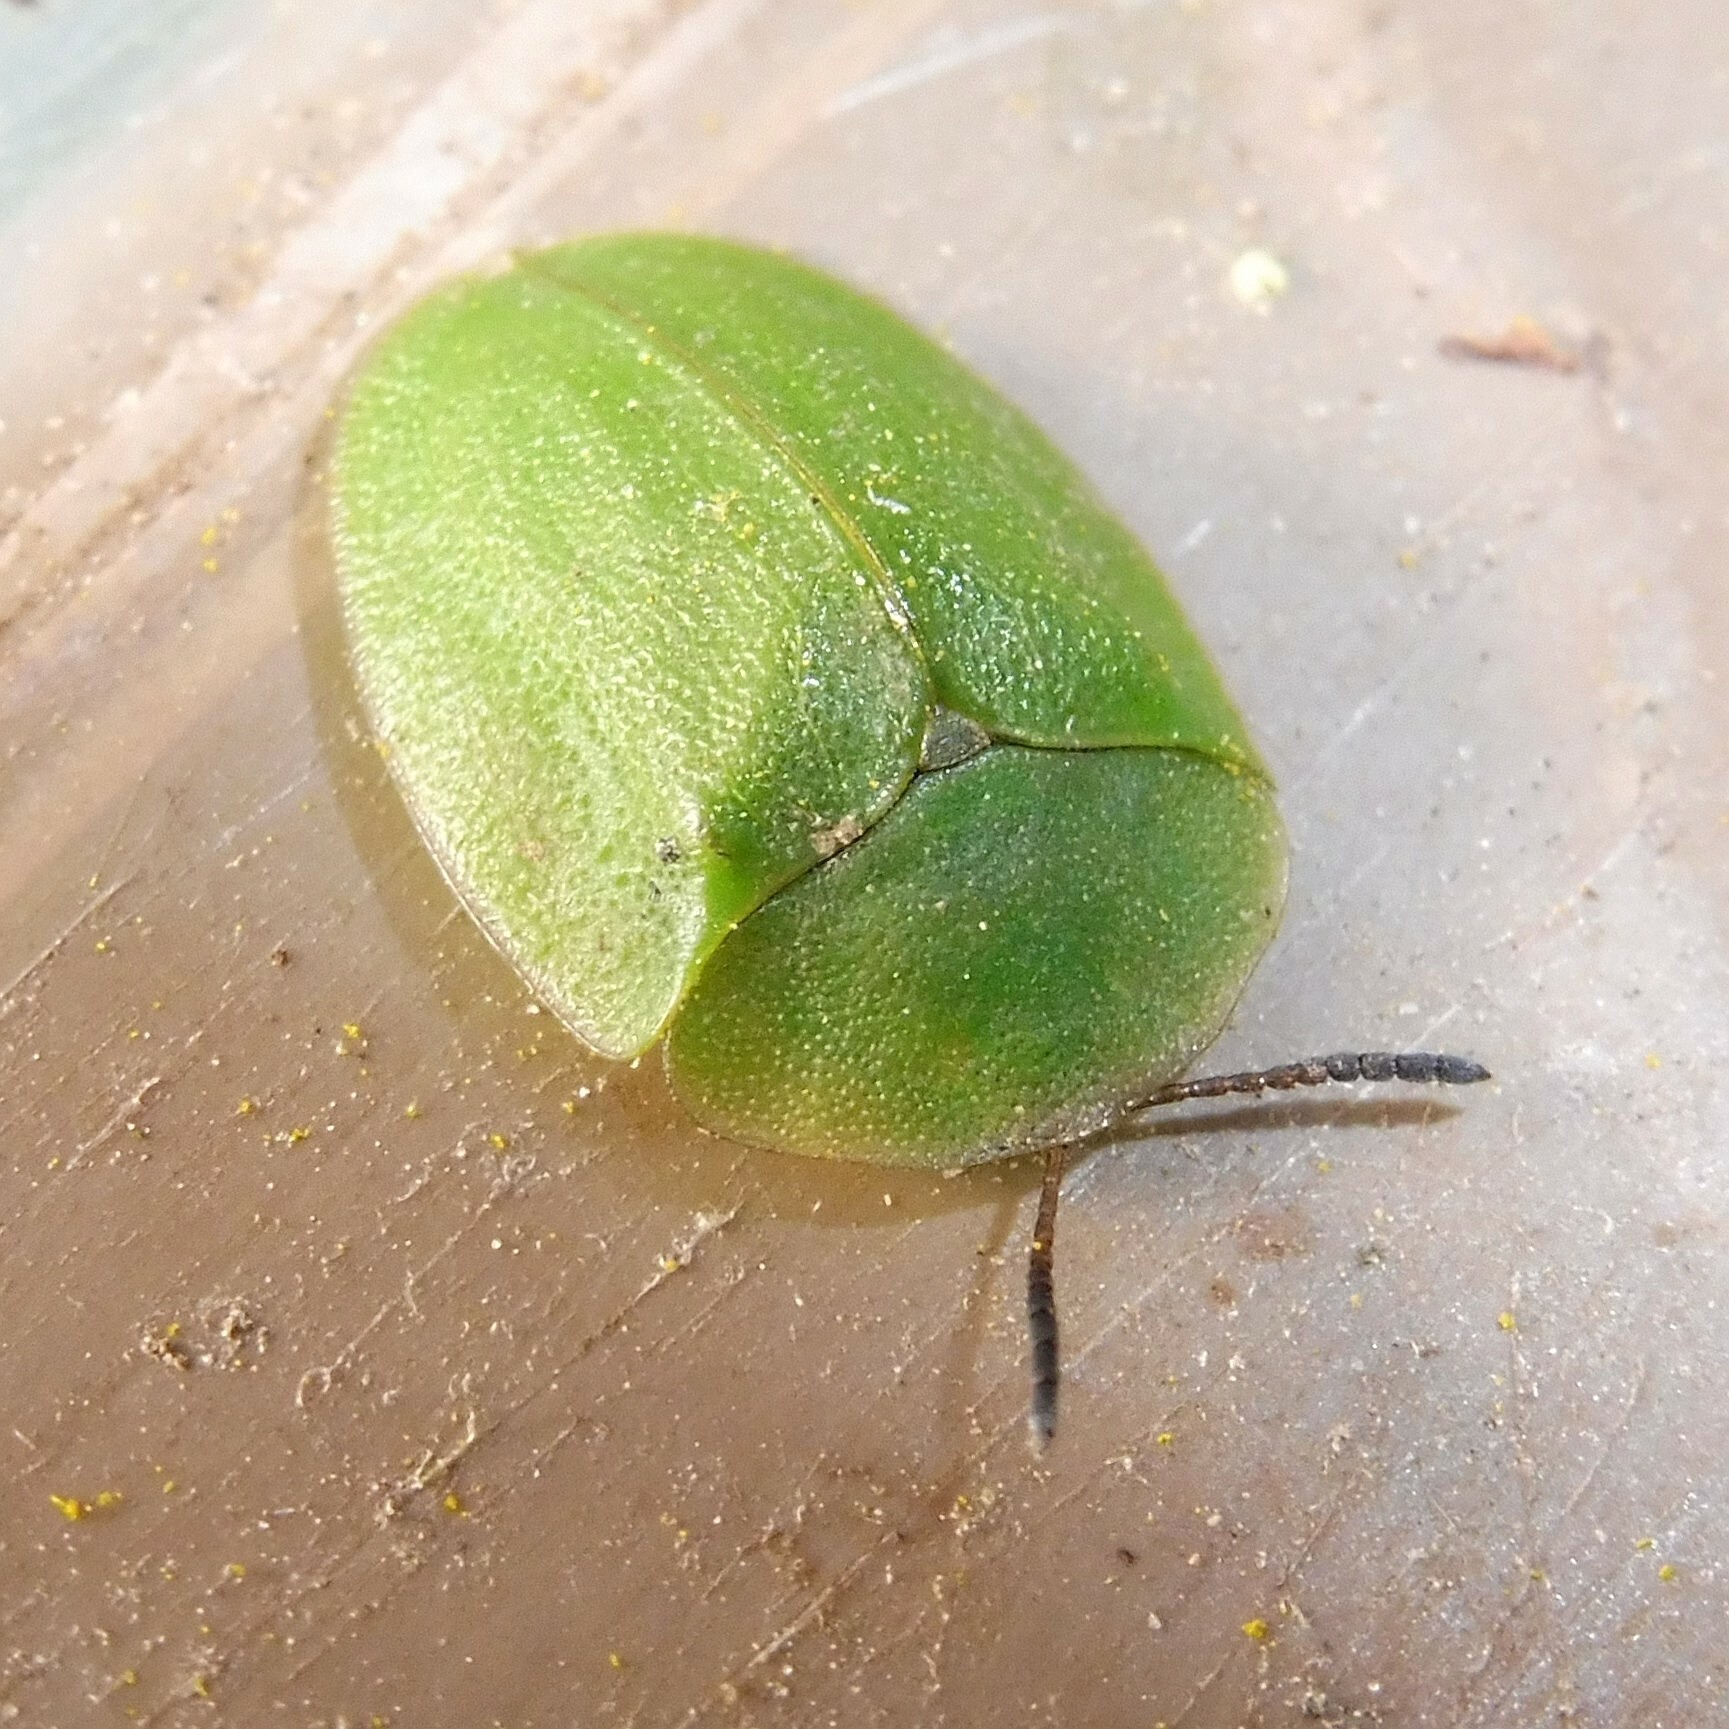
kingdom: Animalia
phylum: Arthropoda
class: Insecta
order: Coleoptera
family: Chrysomelidae
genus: Cassida
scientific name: Cassida viridis
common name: Green tortoise beetle
